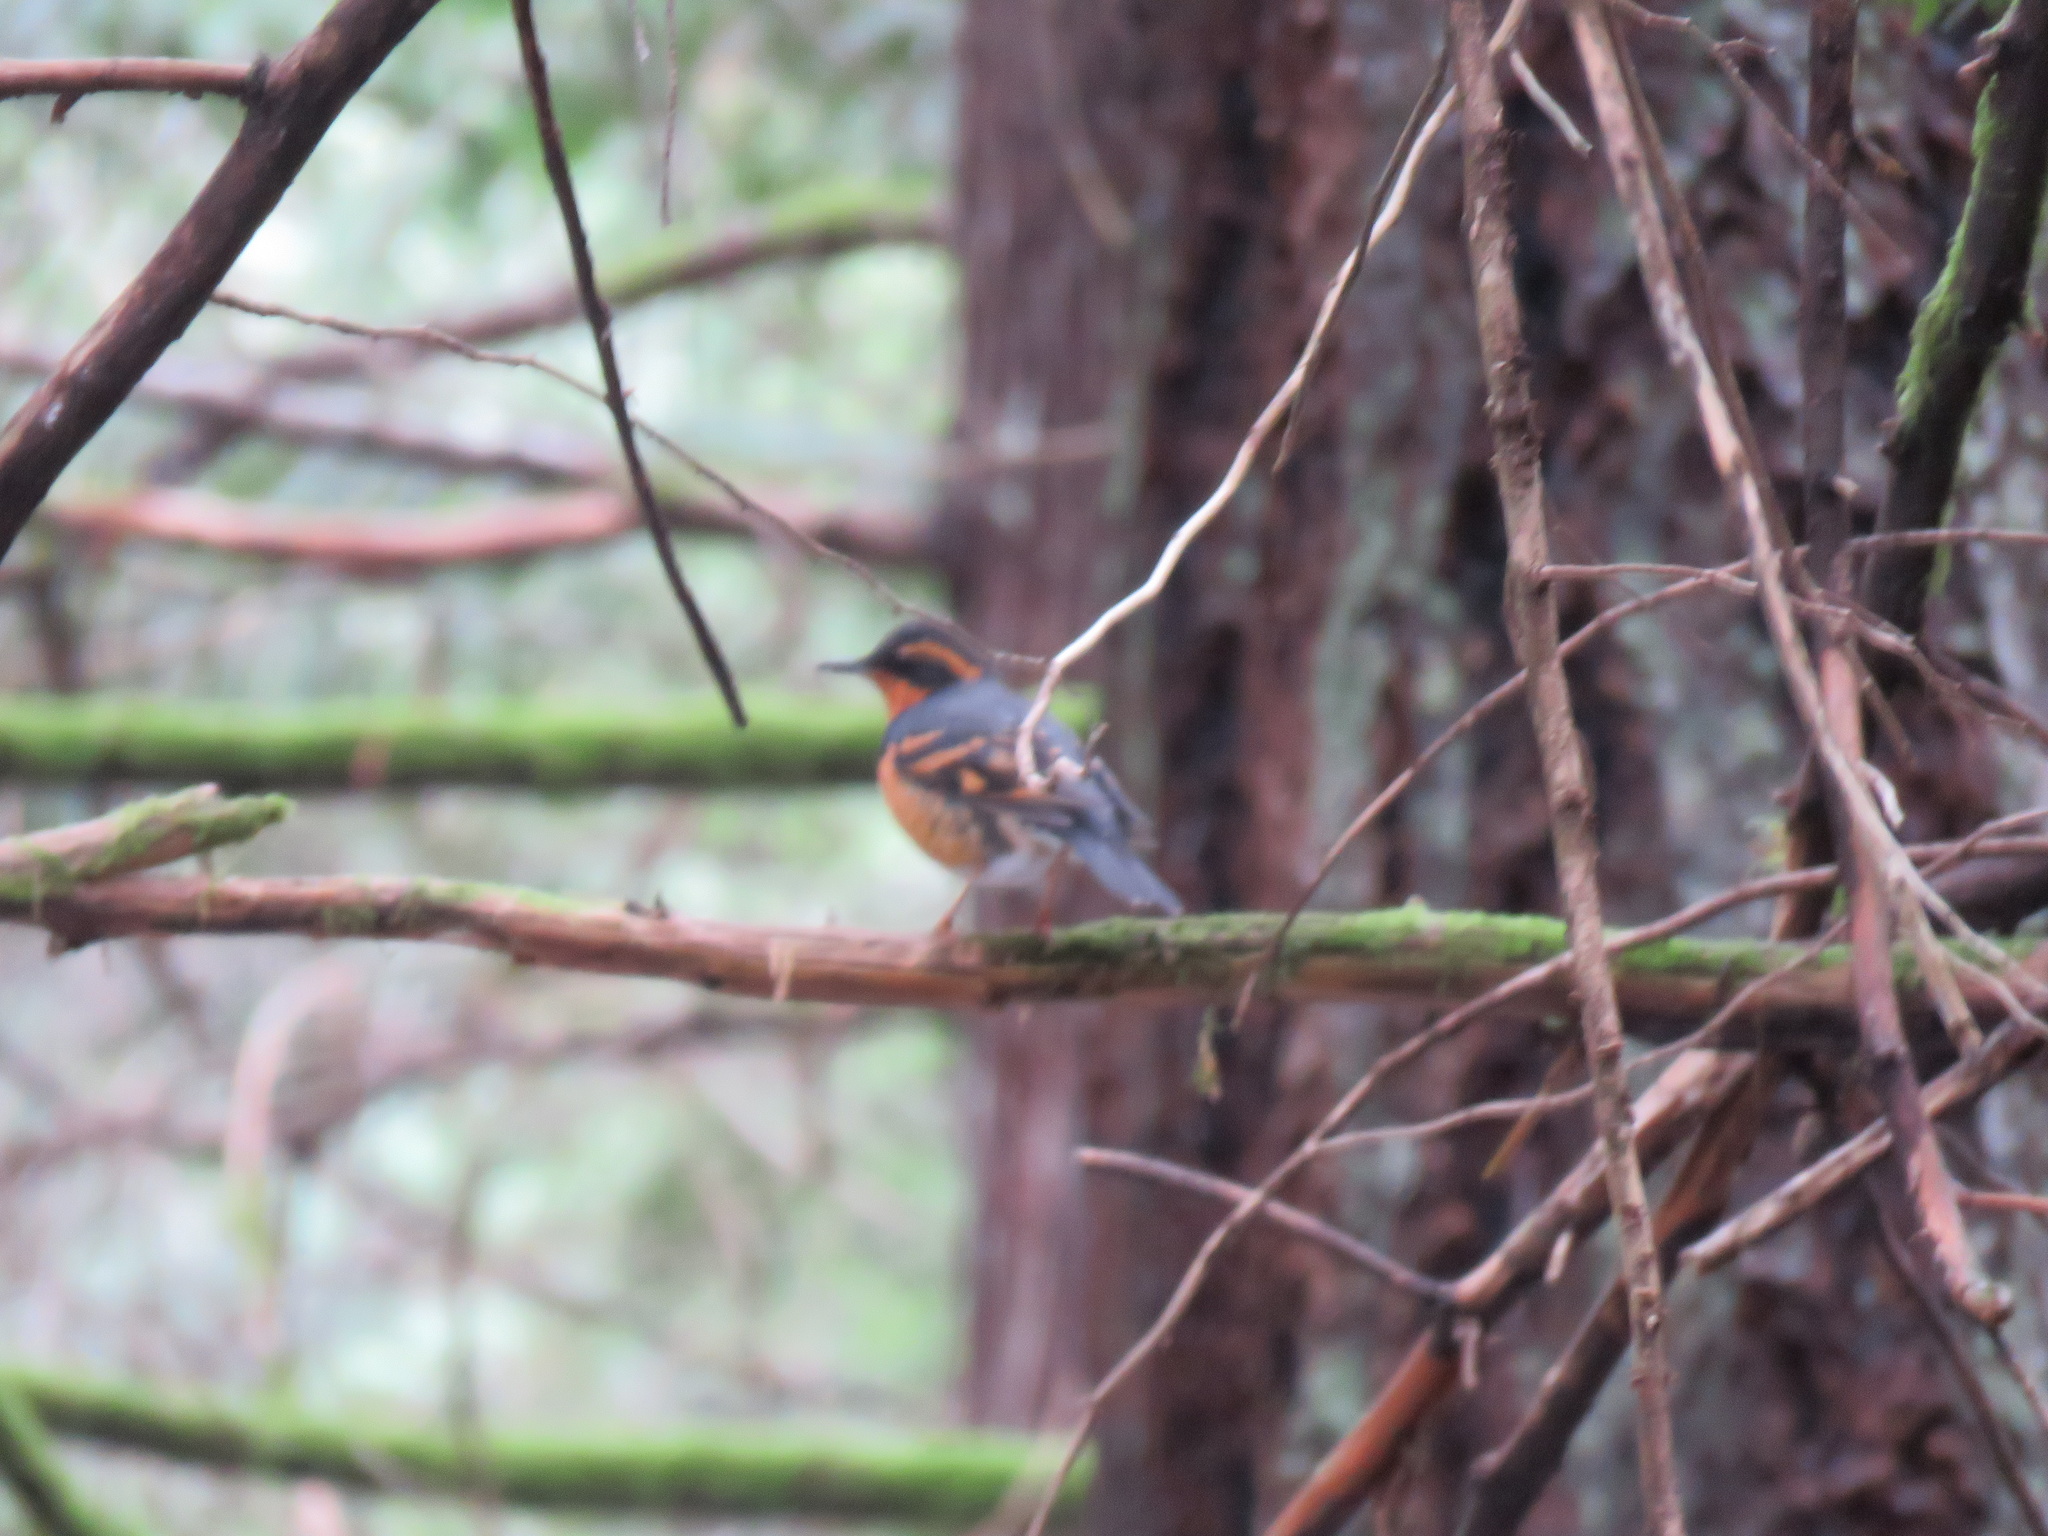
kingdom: Animalia
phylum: Chordata
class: Aves
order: Passeriformes
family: Turdidae
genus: Ixoreus
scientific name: Ixoreus naevius
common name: Varied thrush
